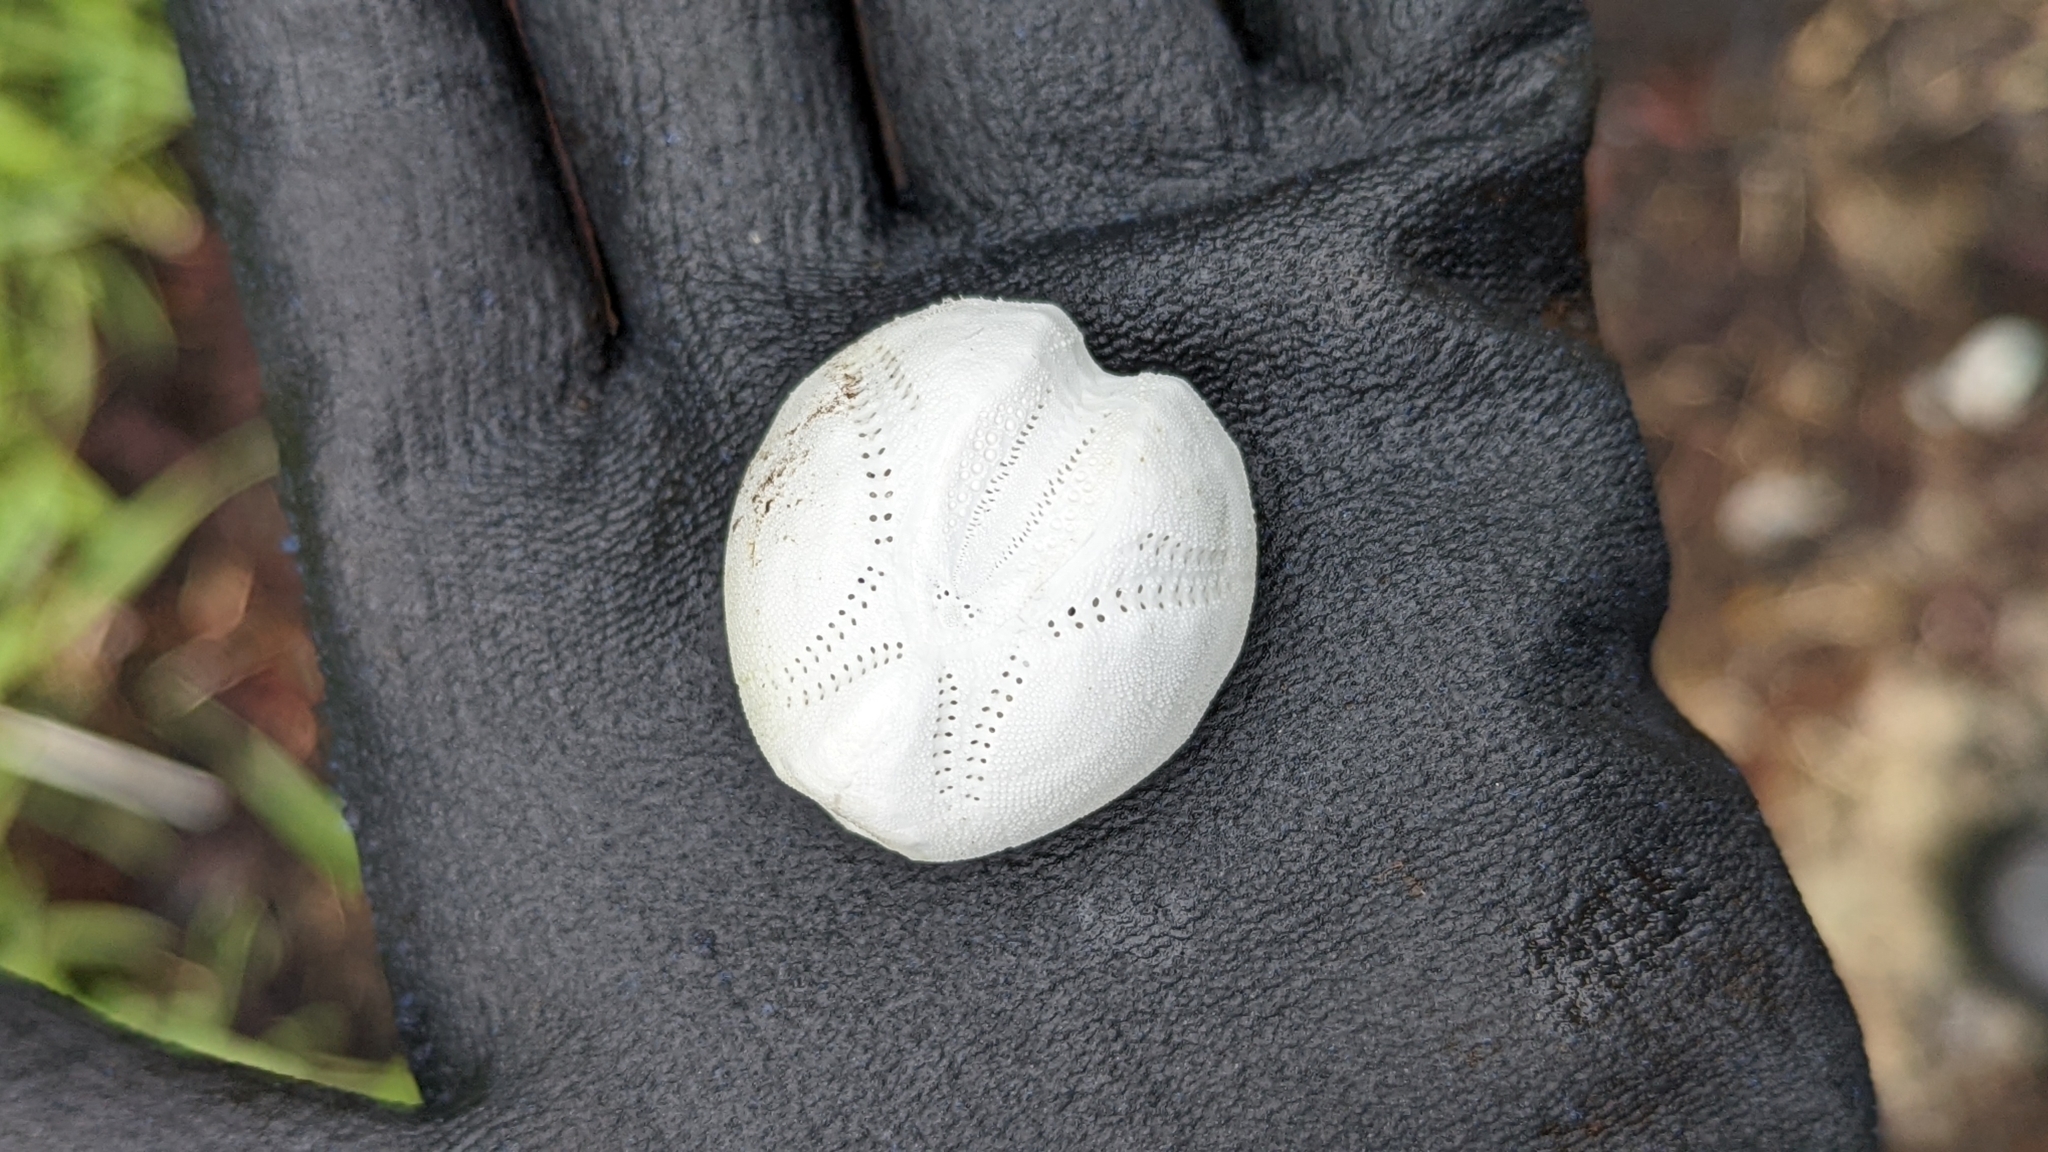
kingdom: Animalia
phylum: Echinodermata
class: Echinoidea
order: Spatangoida
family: Loveniidae
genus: Echinocardium
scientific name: Echinocardium cordatum
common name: Heart-urchin
